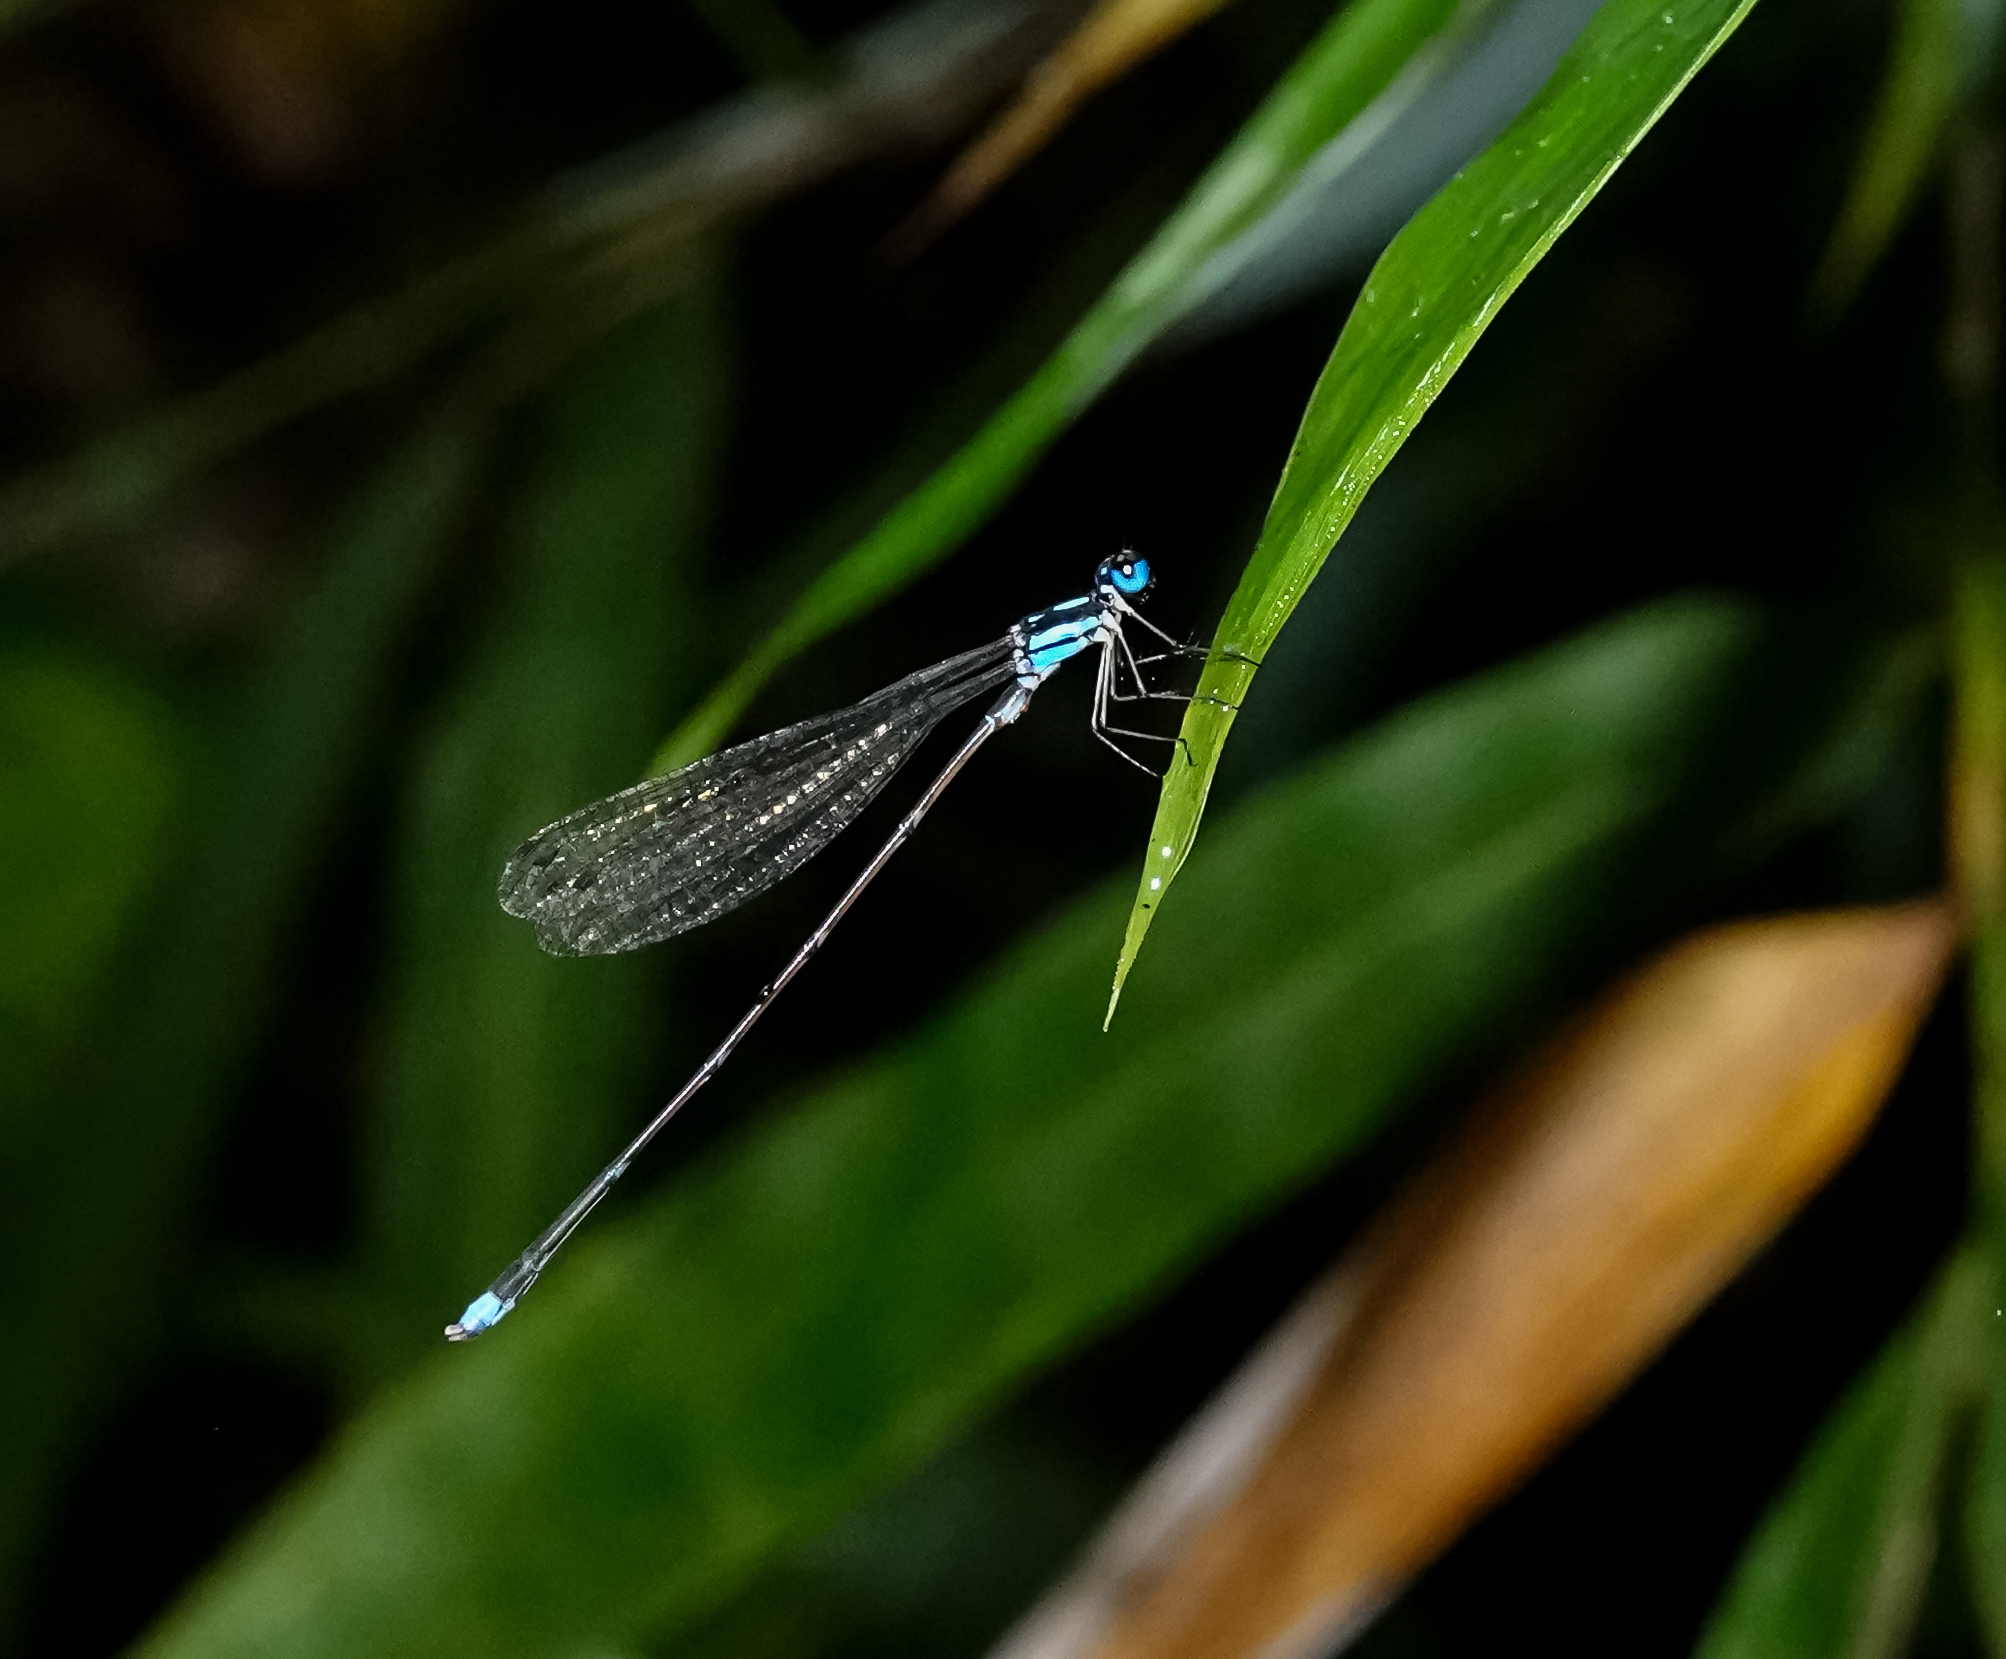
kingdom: Animalia
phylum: Arthropoda
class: Insecta
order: Odonata
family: Platycnemididae
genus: Coeliccia
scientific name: Coeliccia didyma
